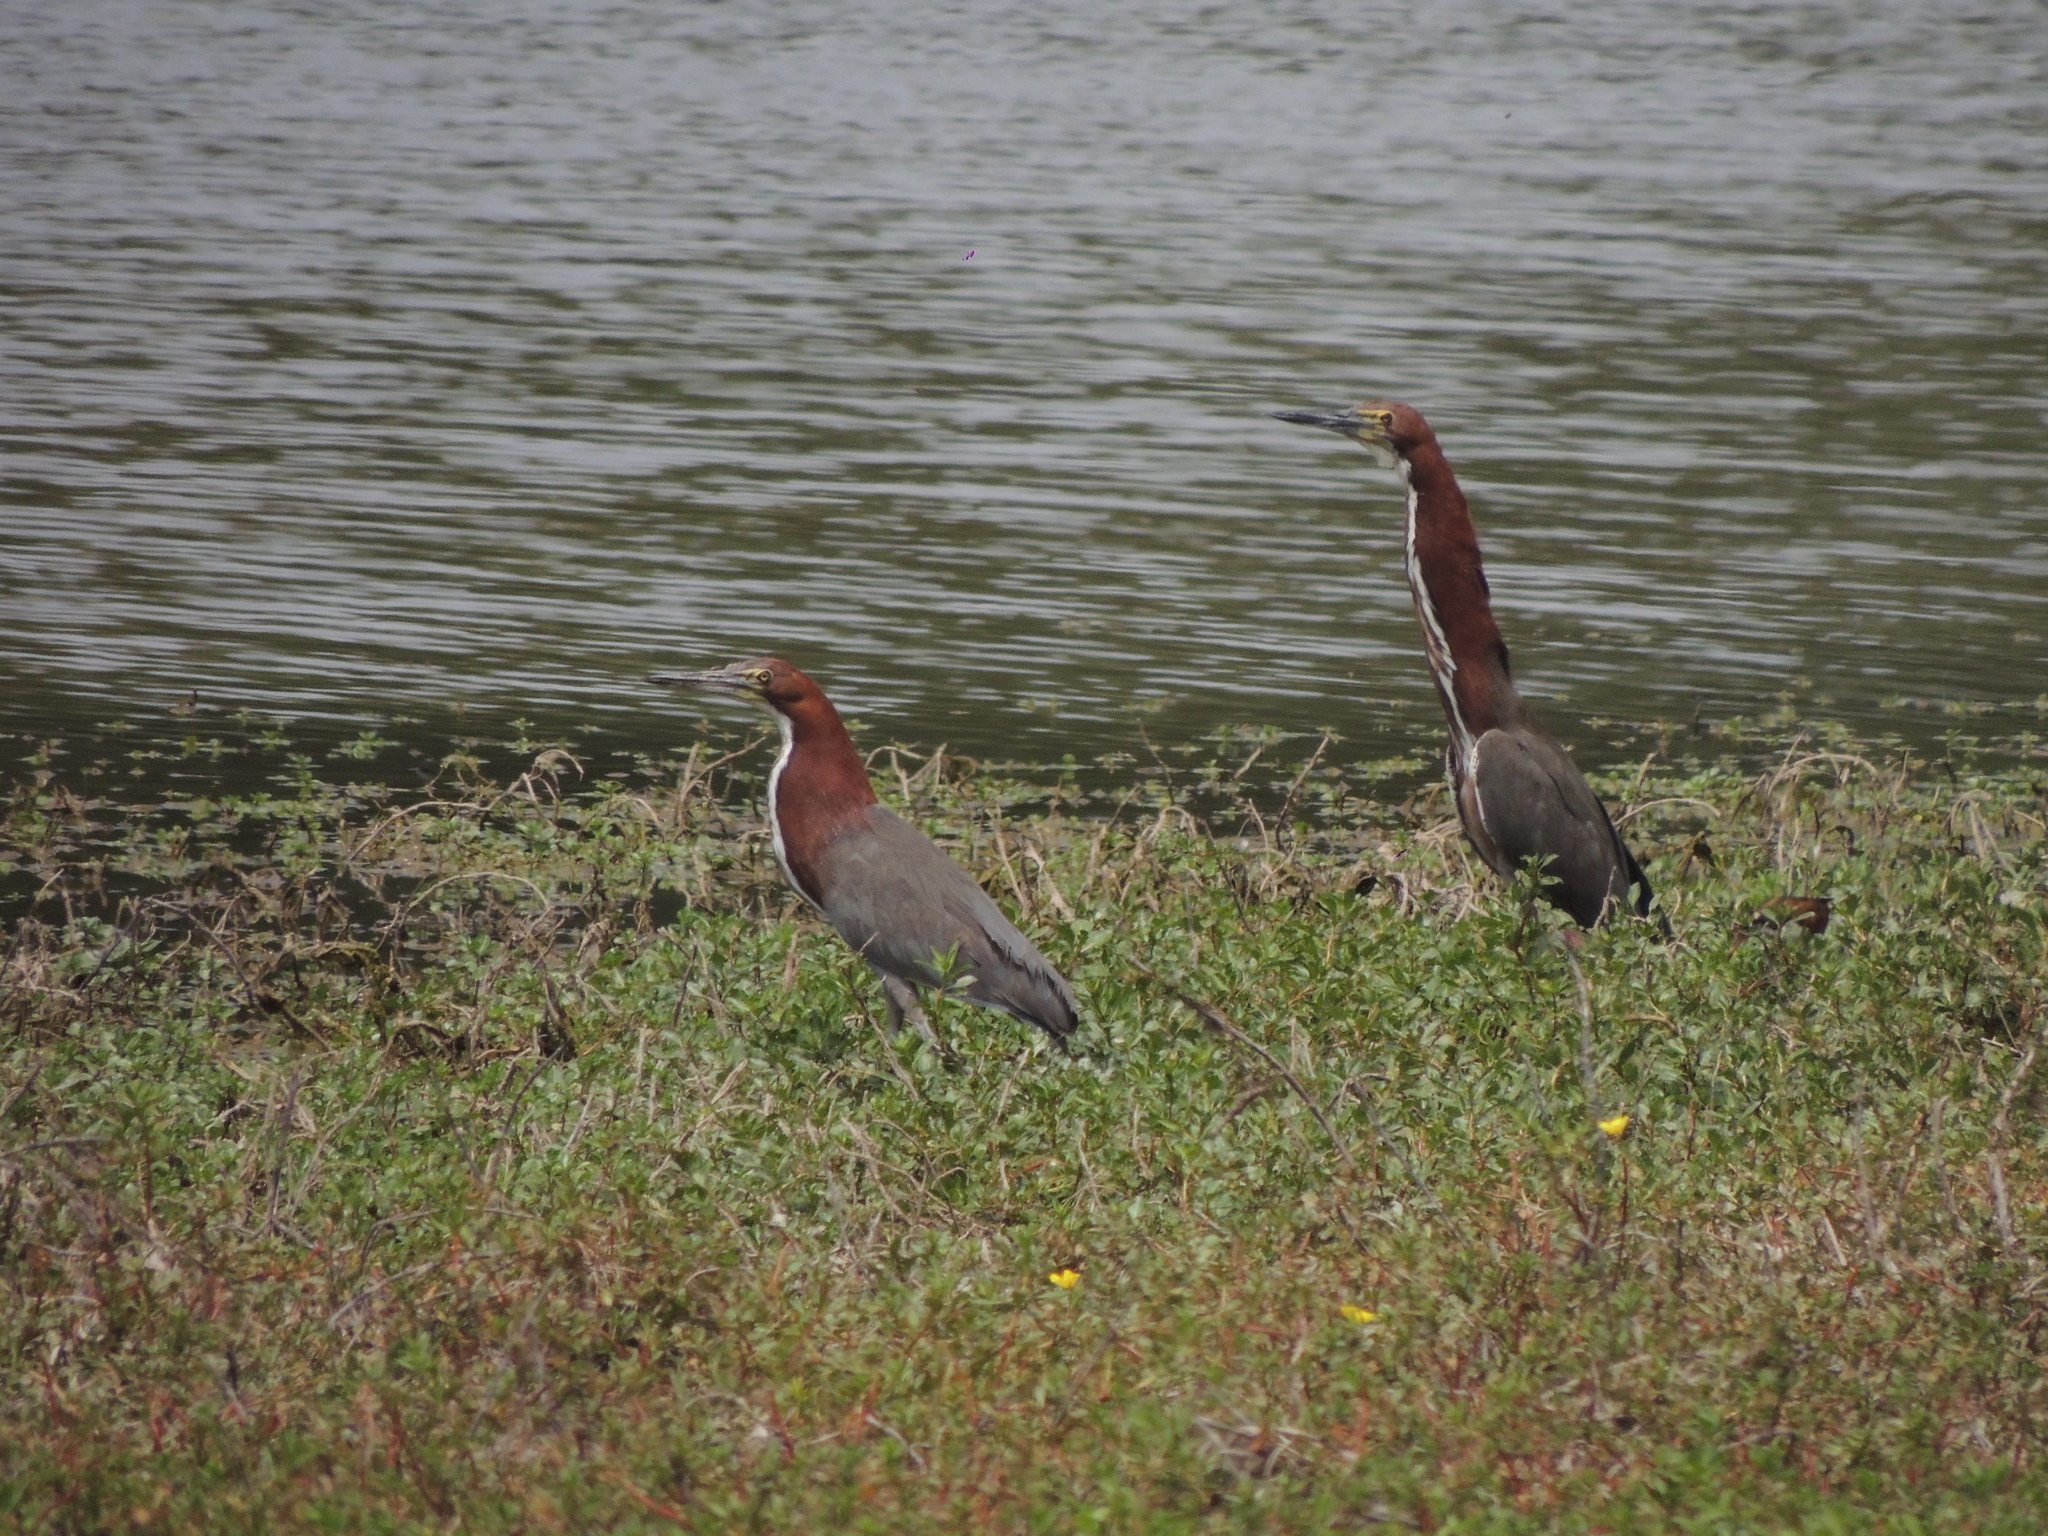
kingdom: Animalia
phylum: Chordata
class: Aves
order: Pelecaniformes
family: Ardeidae
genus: Tigrisoma
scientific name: Tigrisoma lineatum
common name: Rufescent tiger-heron
